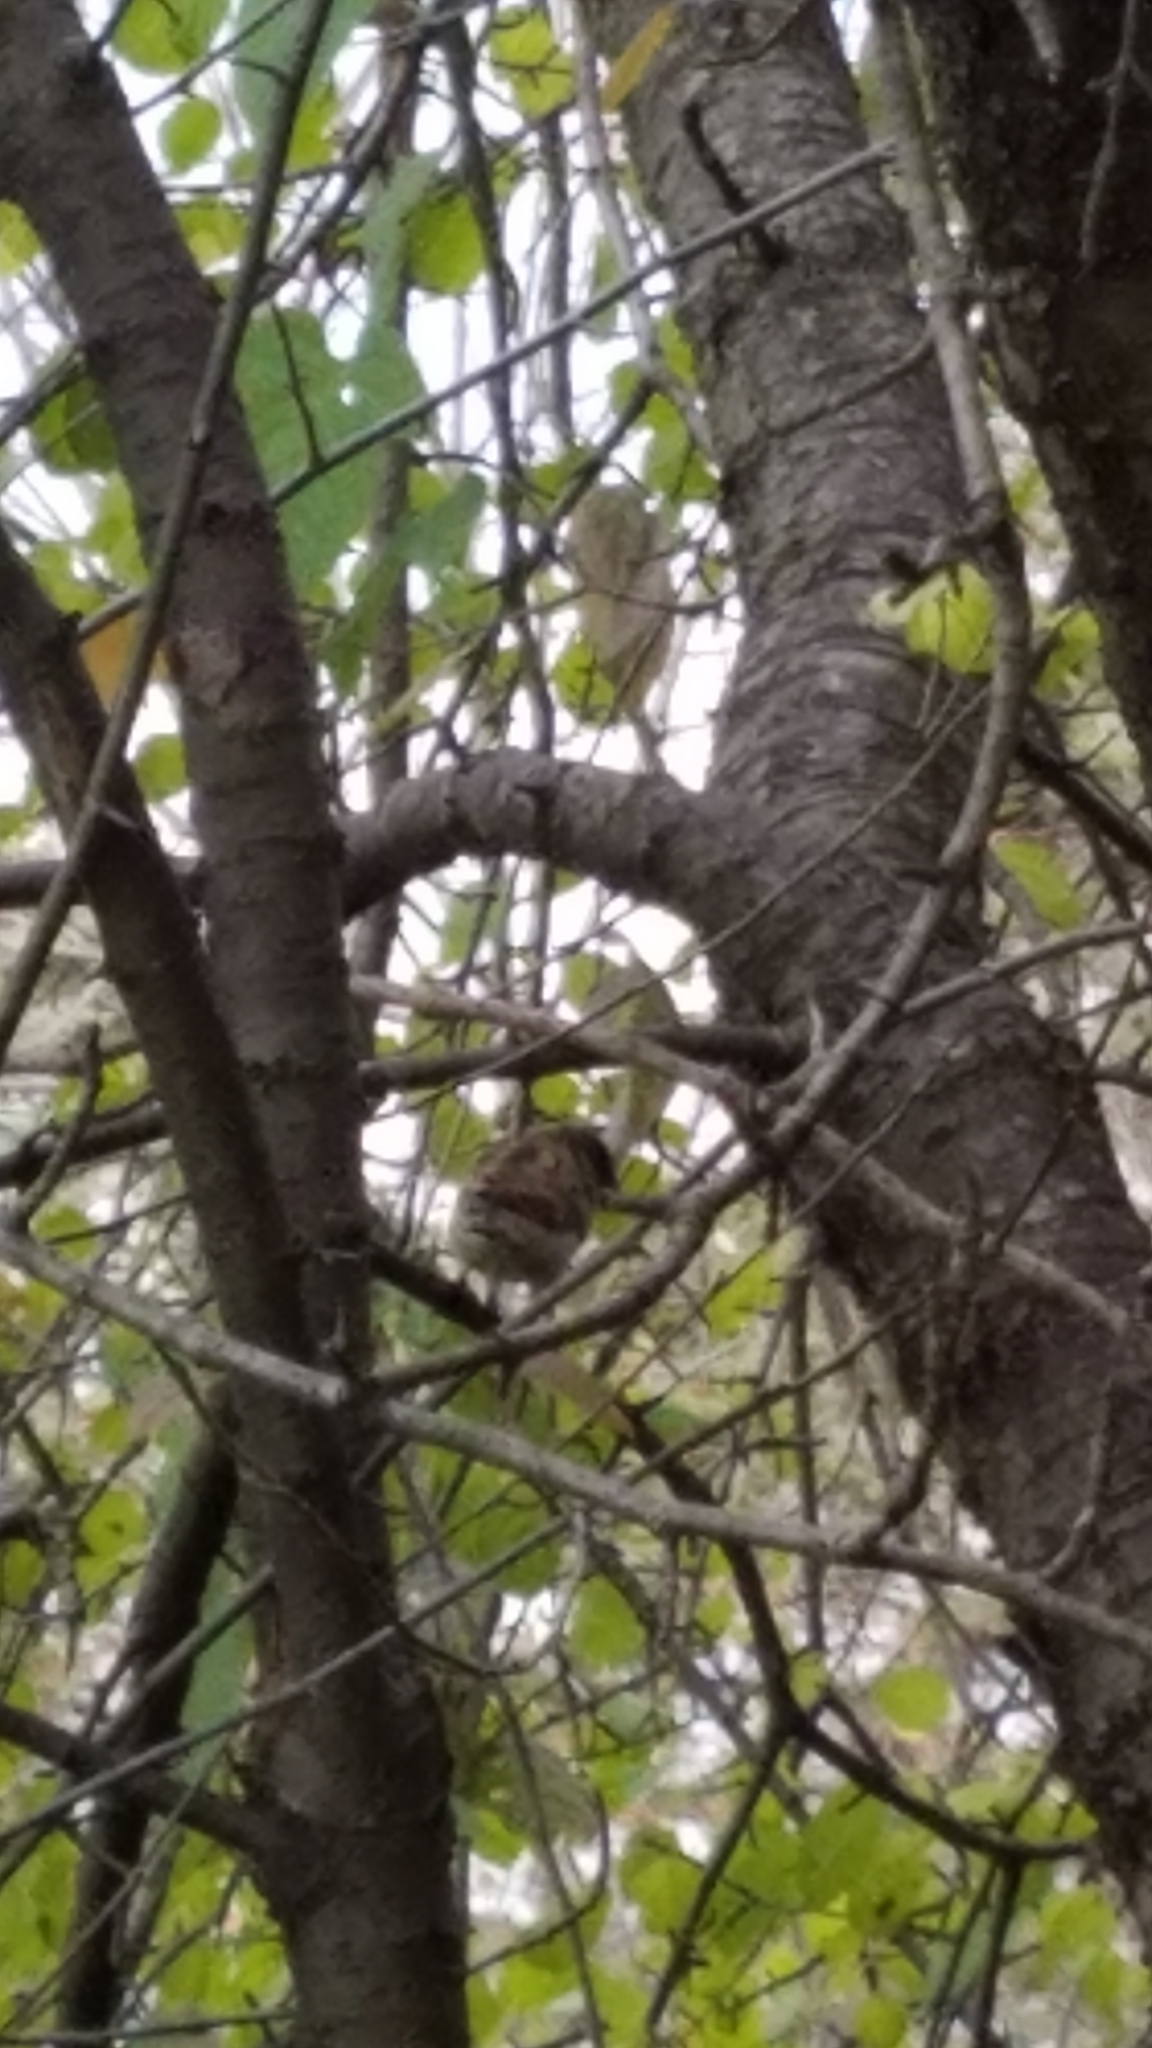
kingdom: Animalia
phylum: Chordata
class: Aves
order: Passeriformes
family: Passeridae
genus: Passer
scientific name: Passer domesticus
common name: House sparrow
